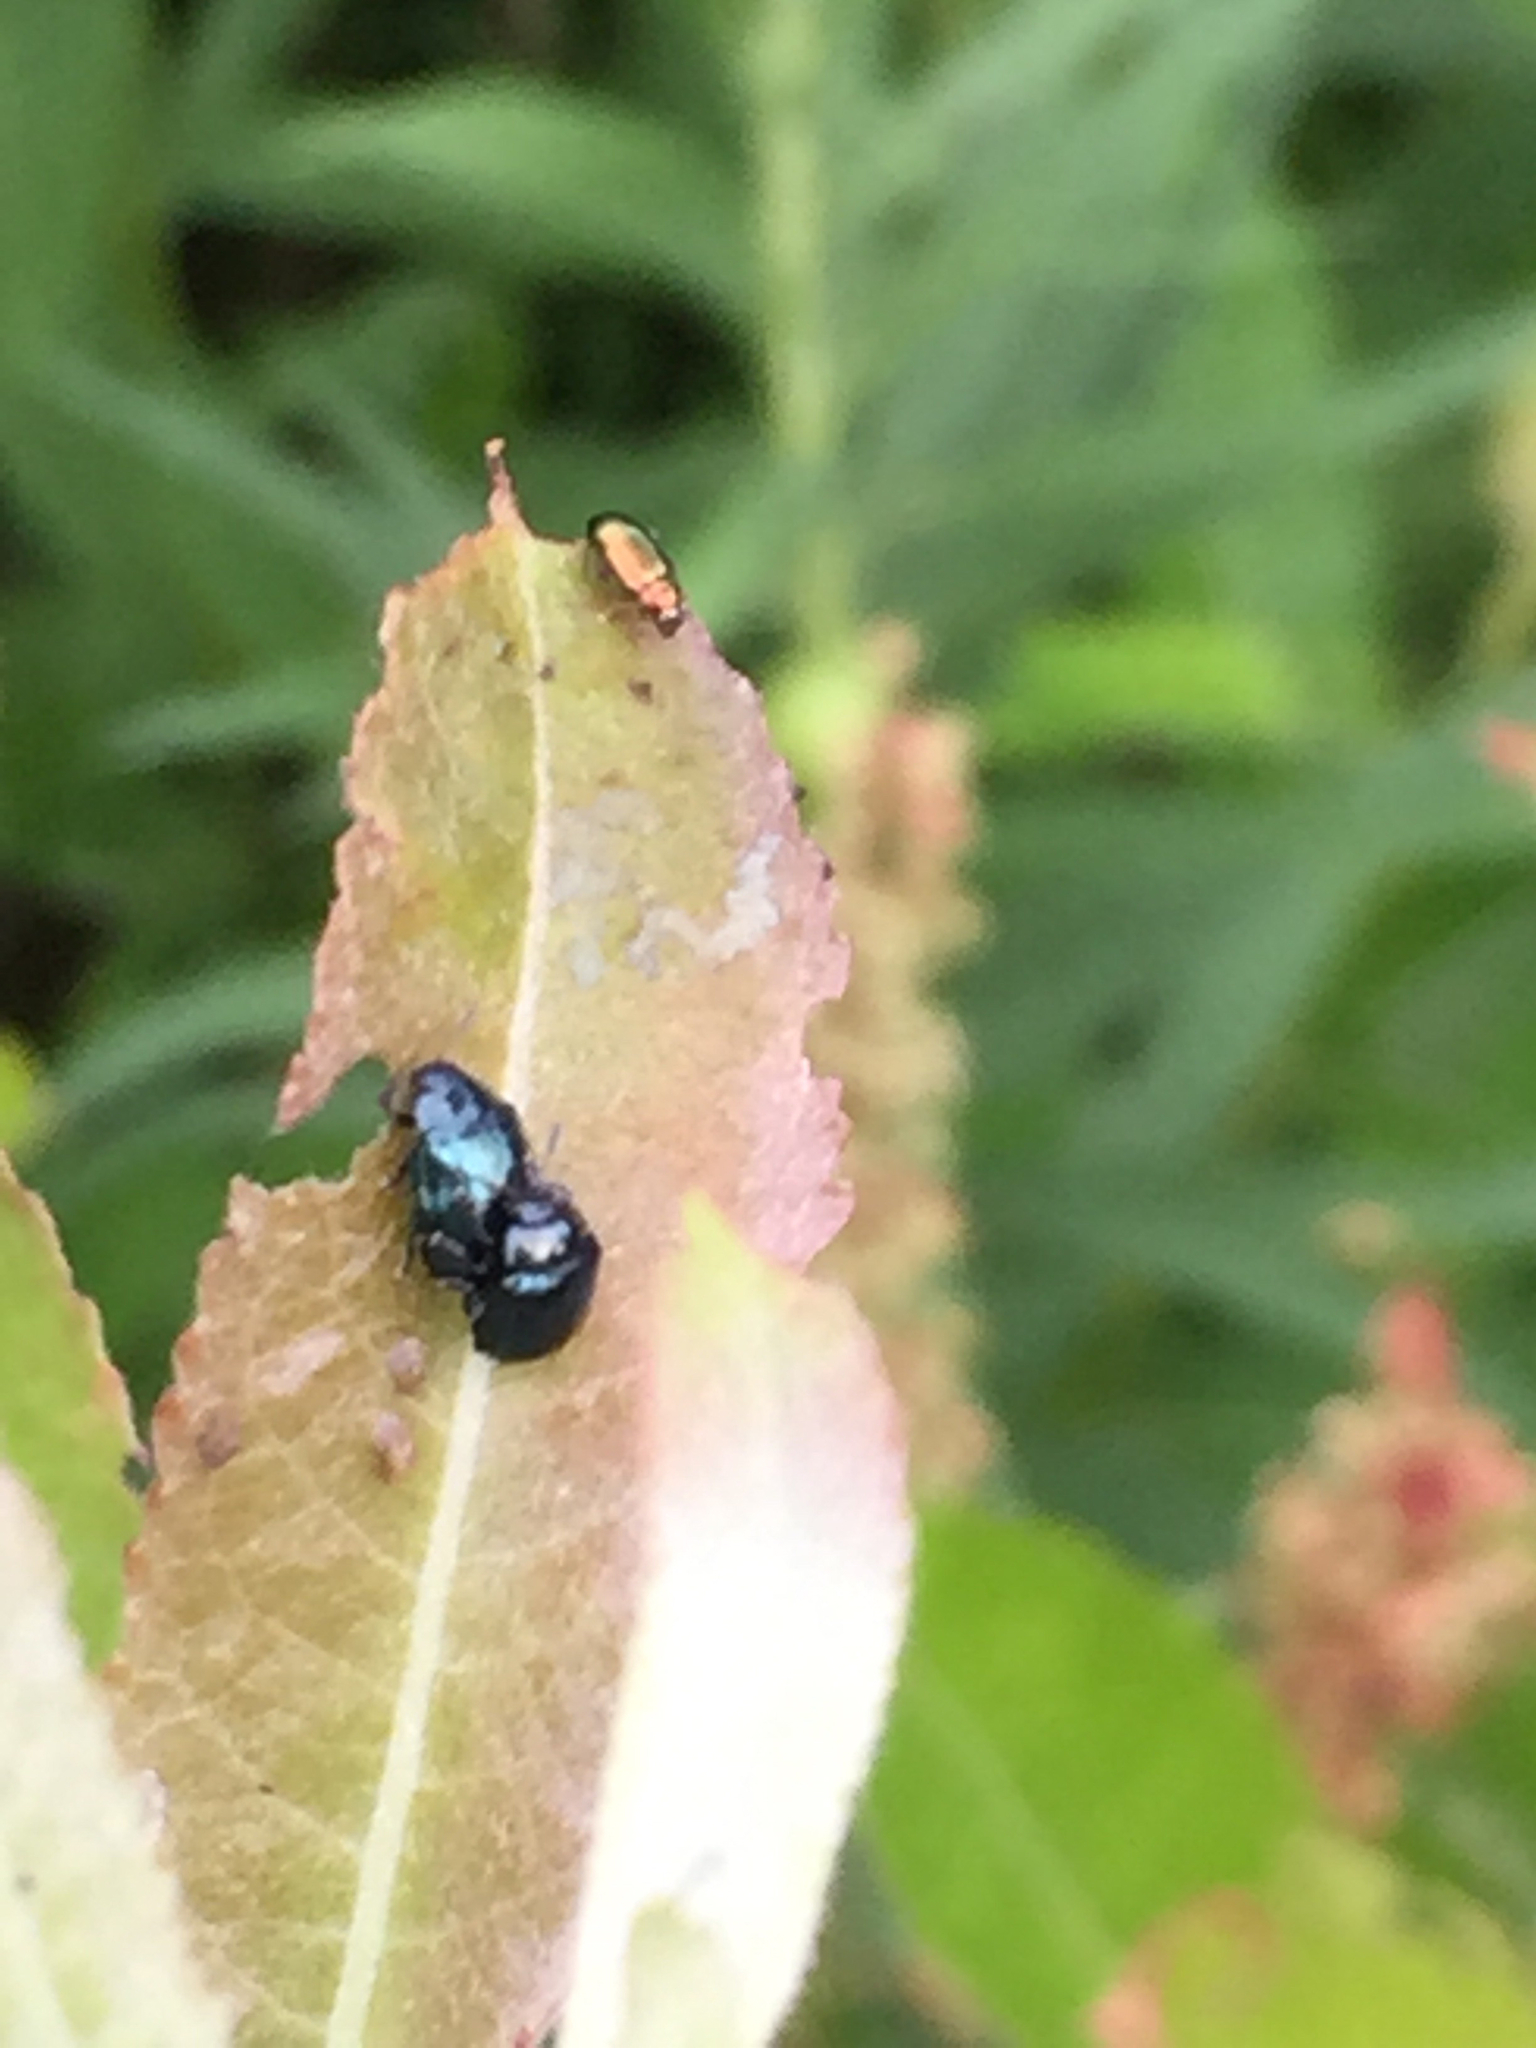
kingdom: Animalia
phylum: Arthropoda
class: Insecta
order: Coleoptera
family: Chrysomelidae
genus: Plagiodera
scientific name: Plagiodera versicolora
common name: Imported willow leaf beetle
